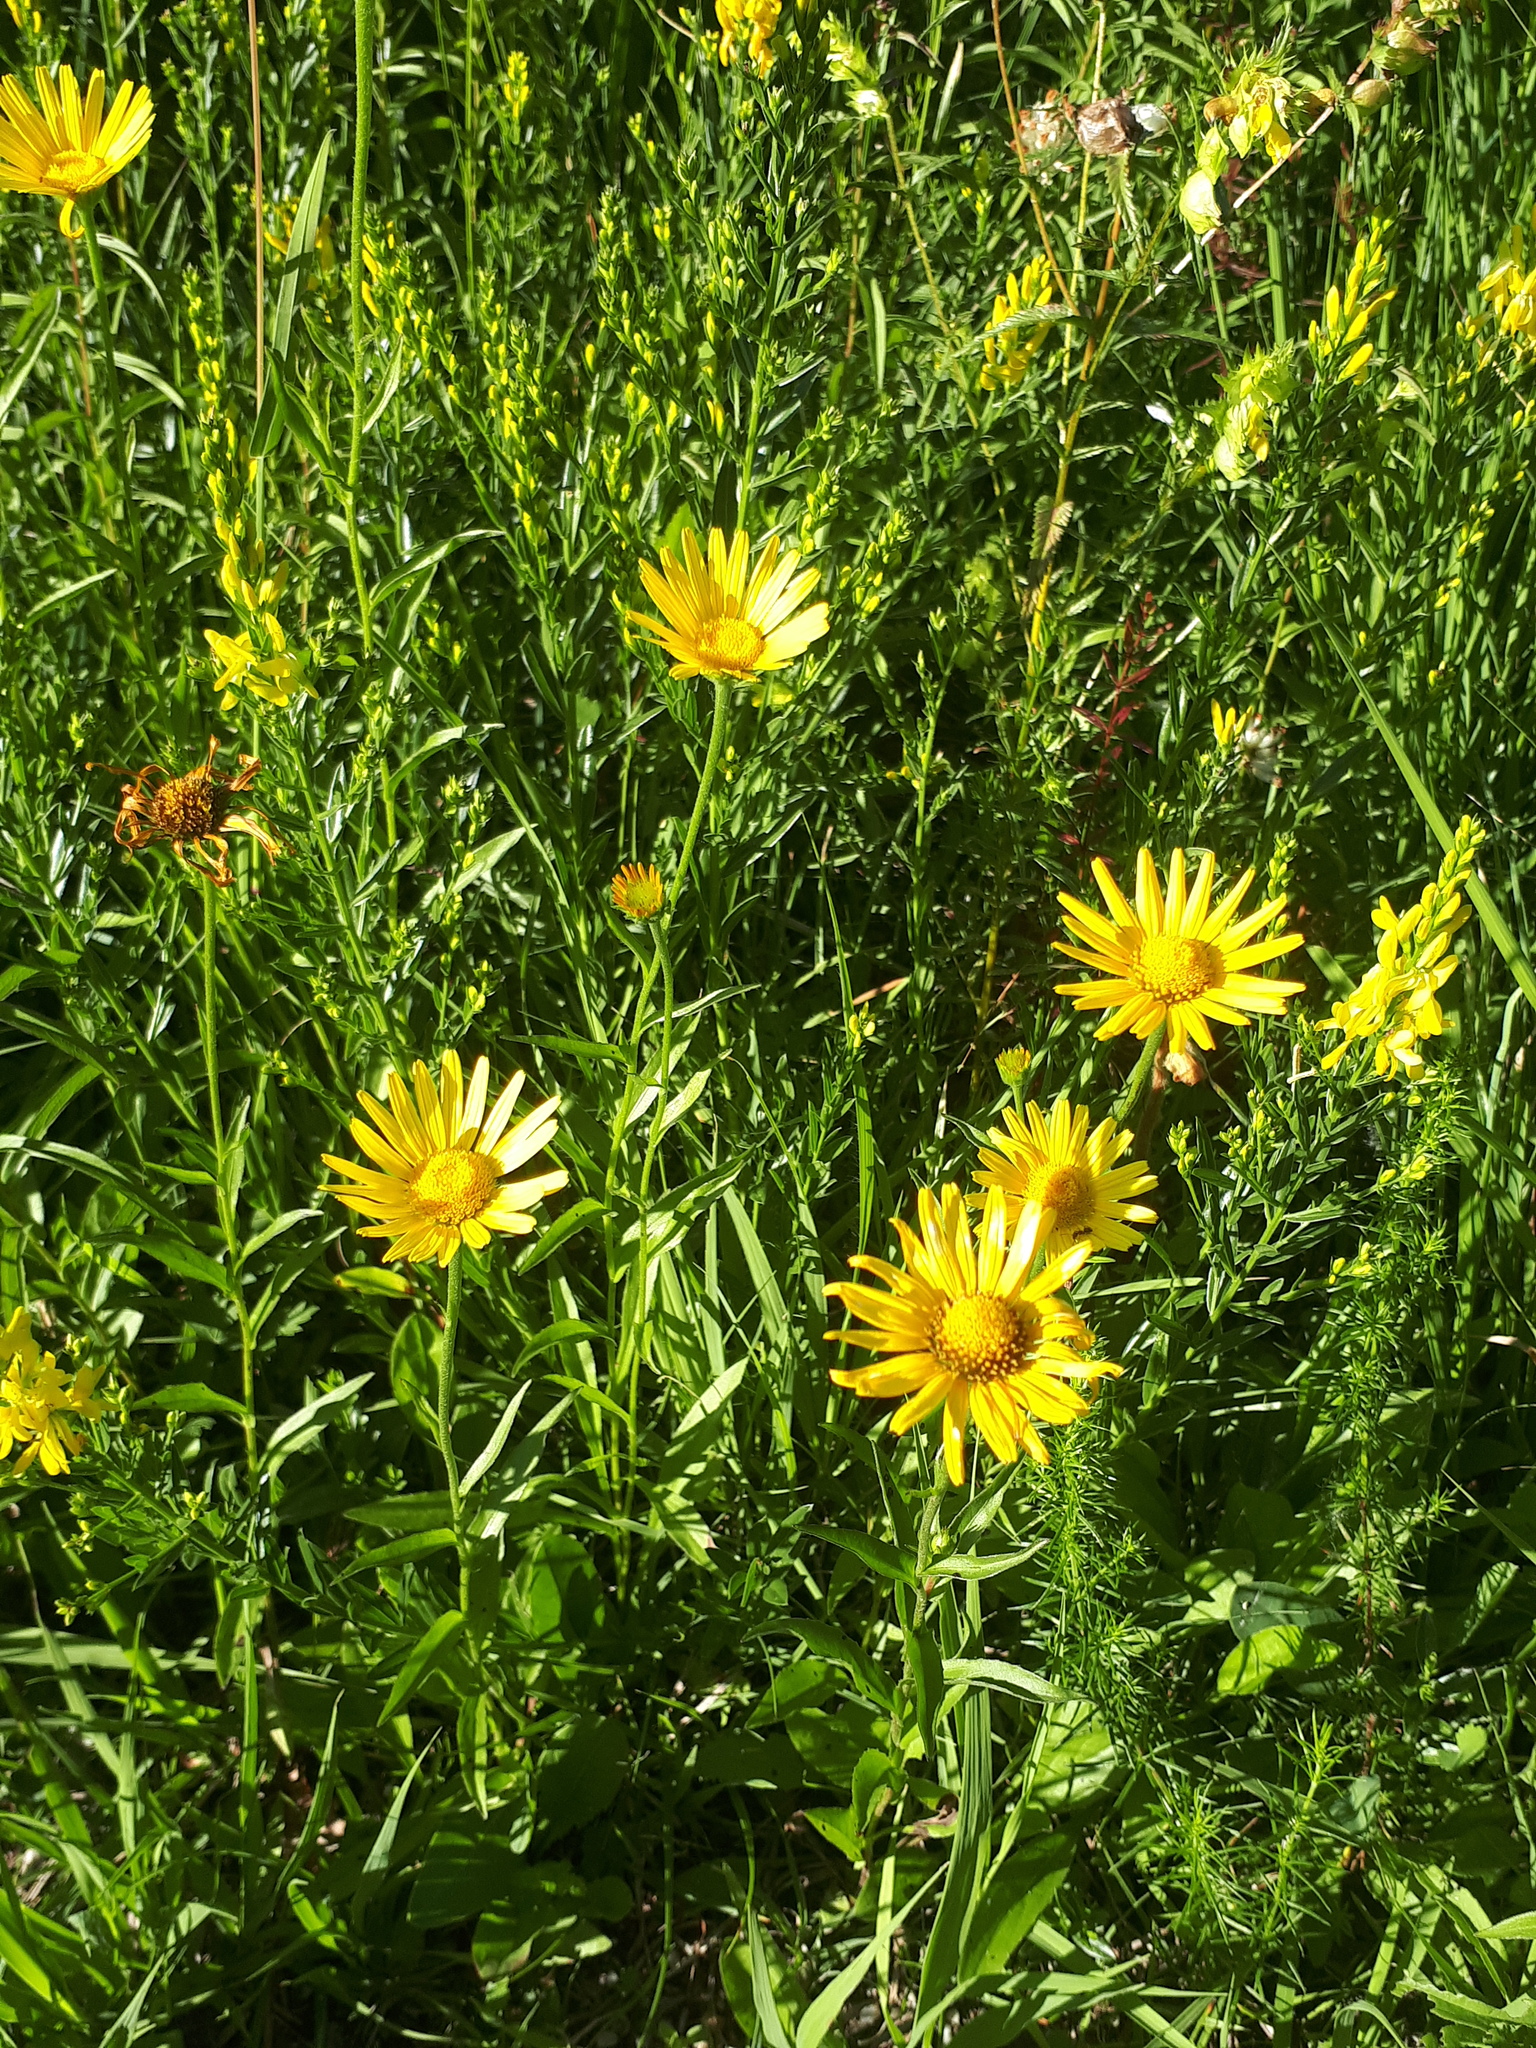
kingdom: Plantae
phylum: Tracheophyta
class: Magnoliopsida
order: Asterales
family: Asteraceae
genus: Buphthalmum
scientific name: Buphthalmum salicifolium
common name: Willow-leaved yellow-oxeye
